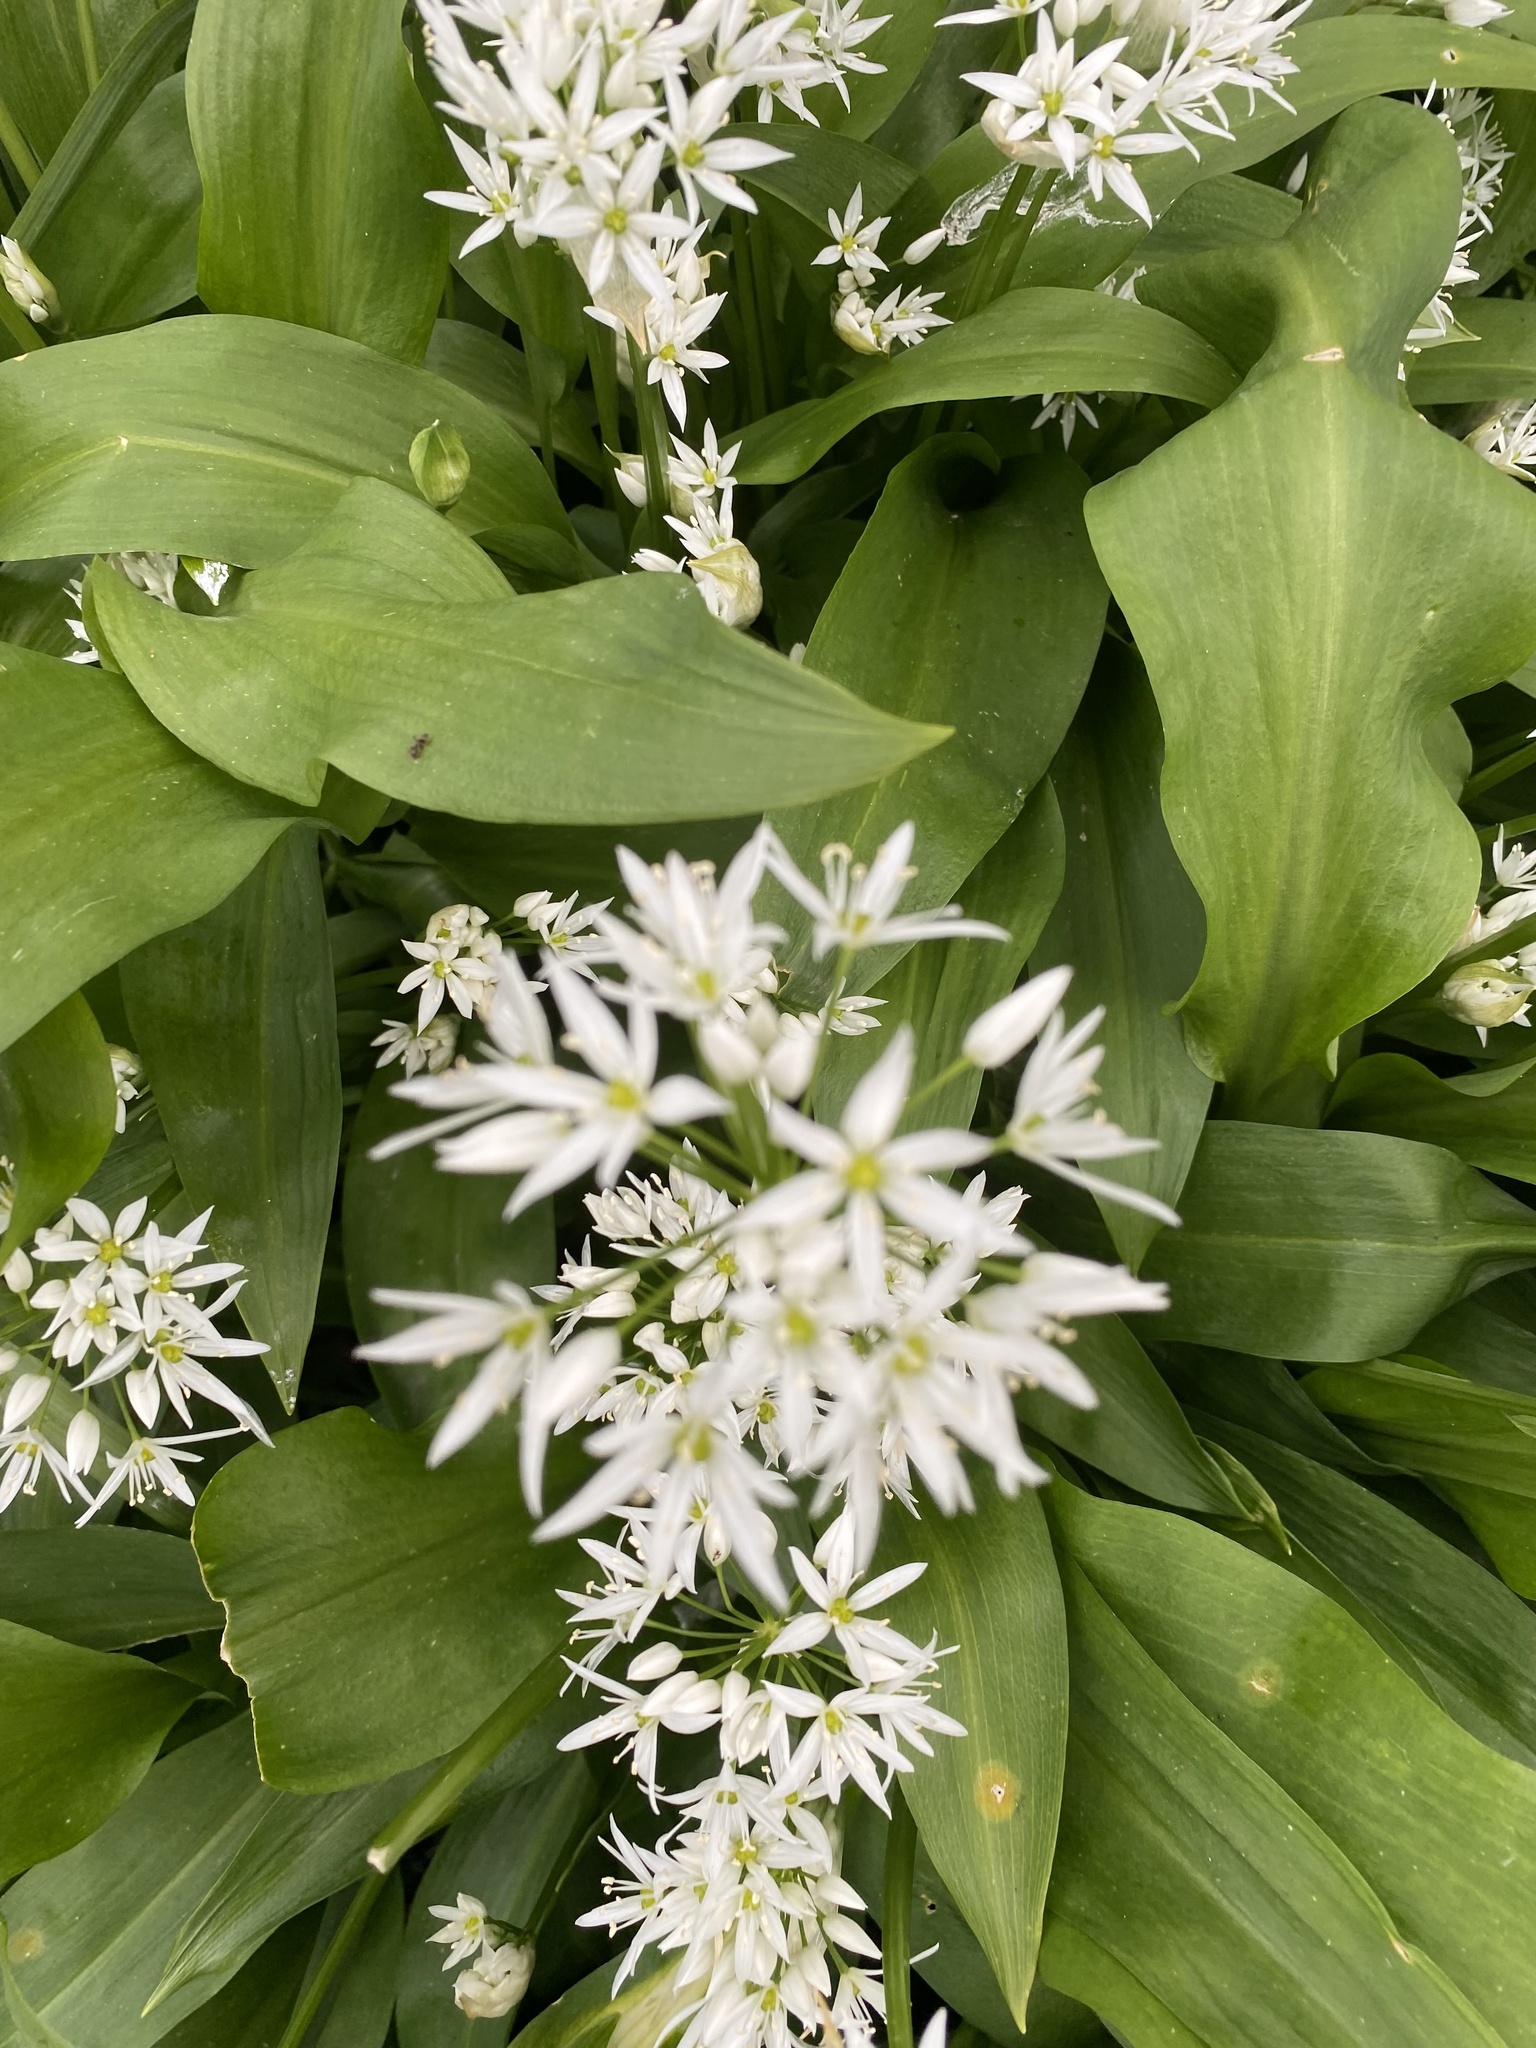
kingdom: Plantae
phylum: Tracheophyta
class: Liliopsida
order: Asparagales
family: Amaryllidaceae
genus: Allium
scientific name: Allium ursinum
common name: Ramsons
